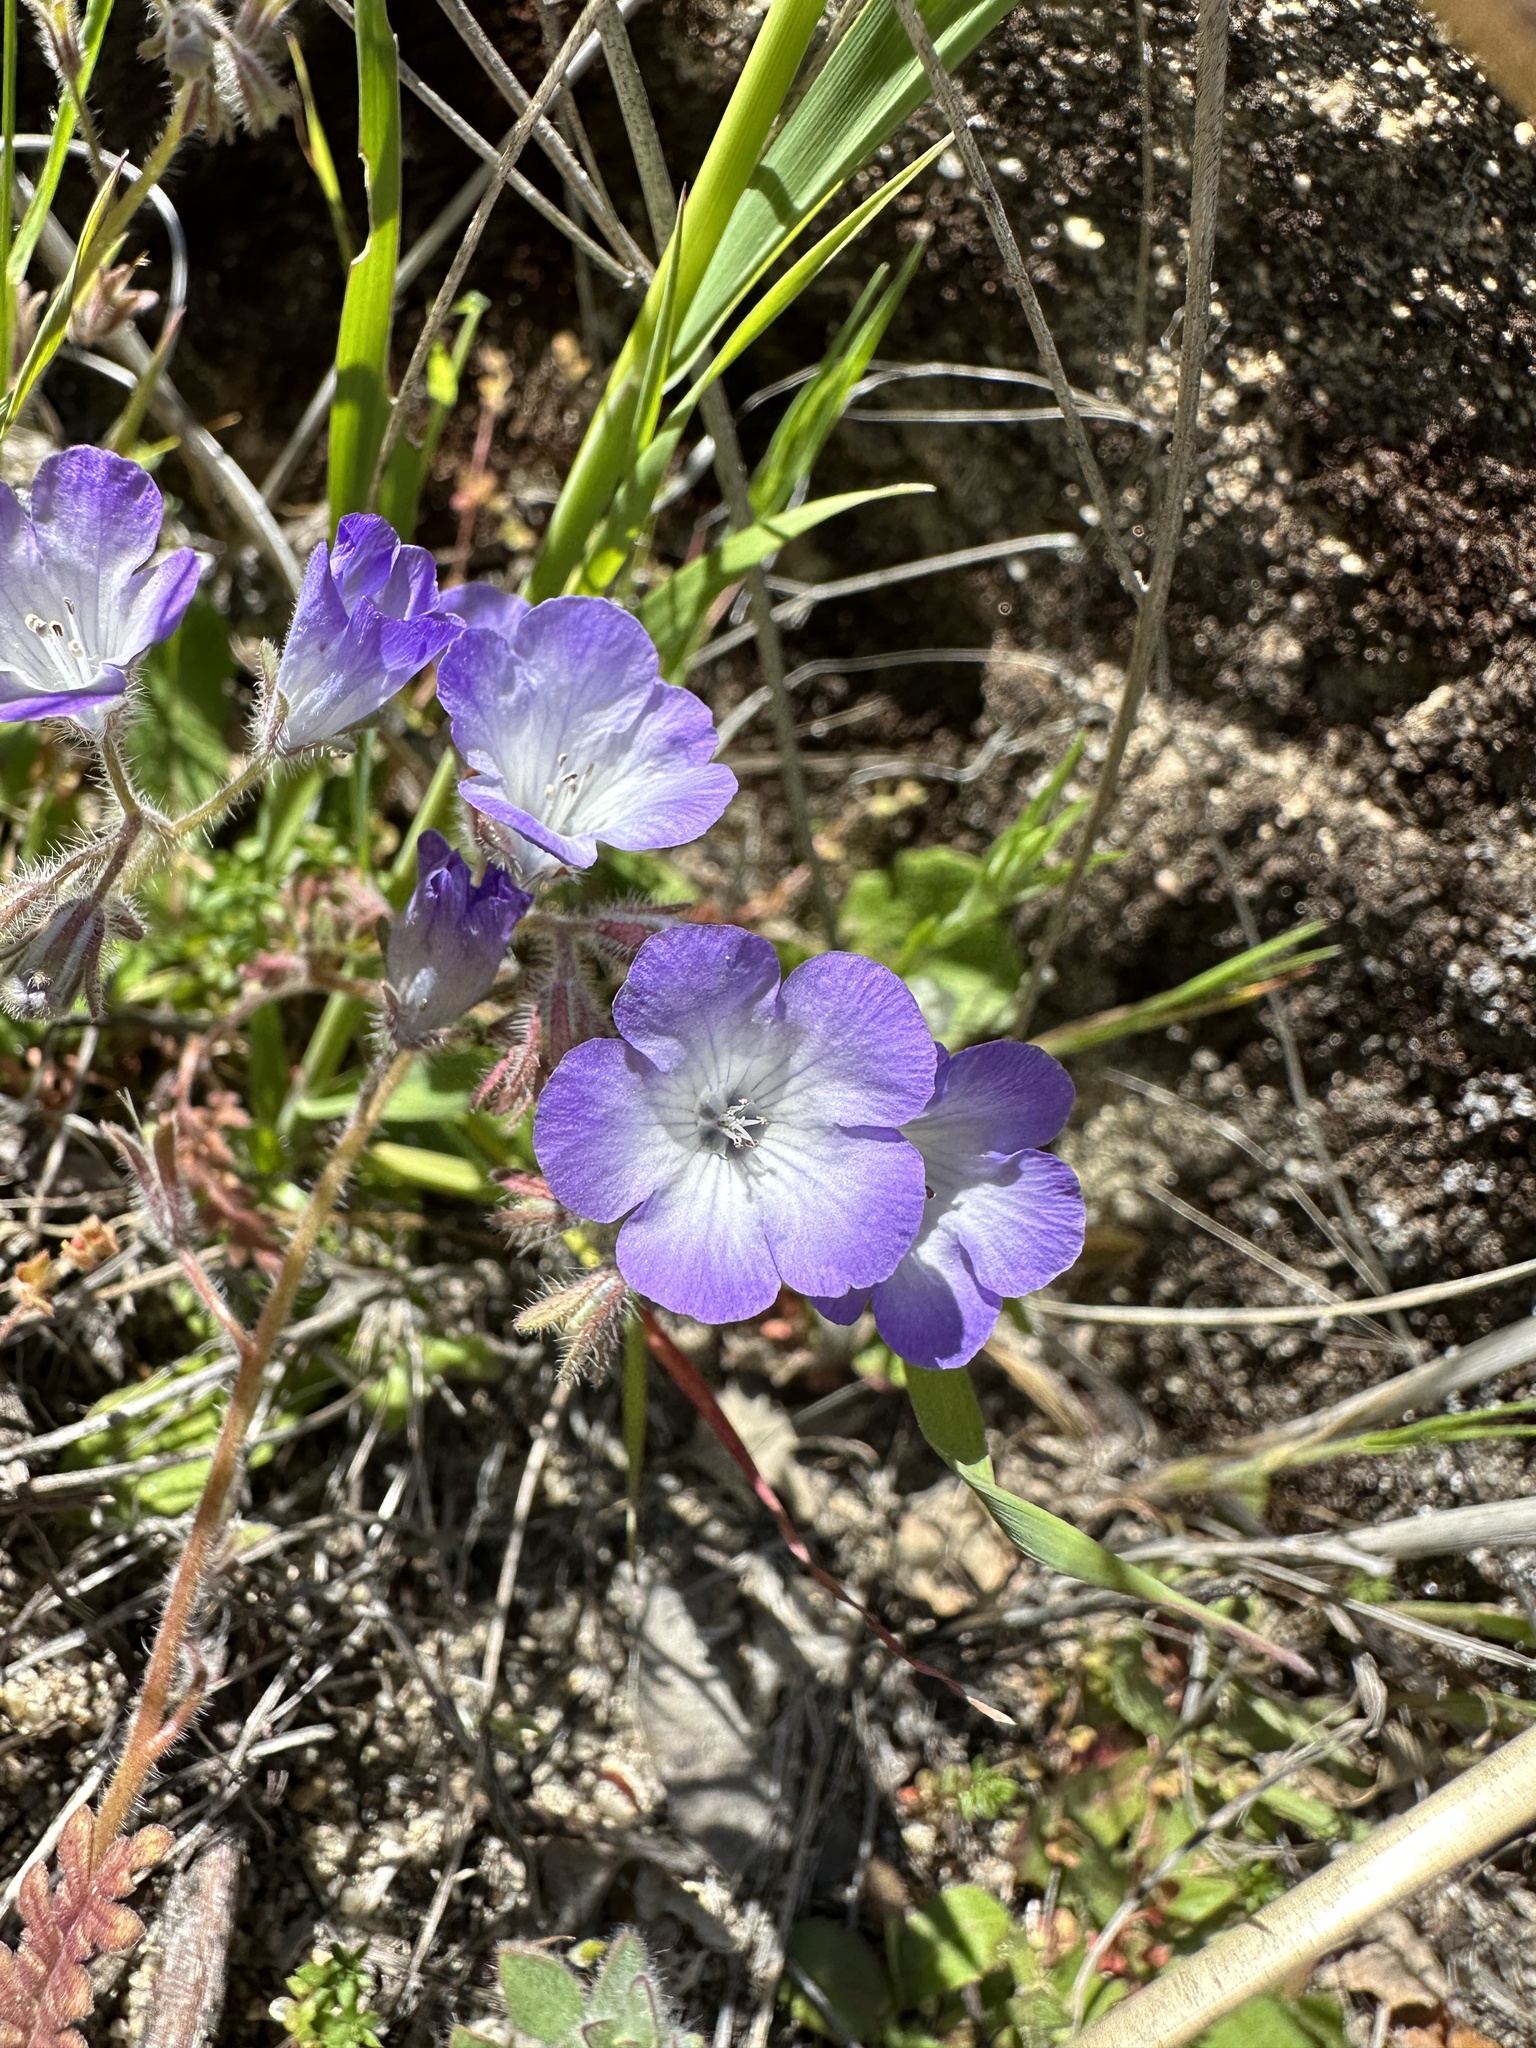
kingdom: Plantae
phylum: Tracheophyta
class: Magnoliopsida
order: Boraginales
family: Hydrophyllaceae
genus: Phacelia
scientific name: Phacelia douglasii
